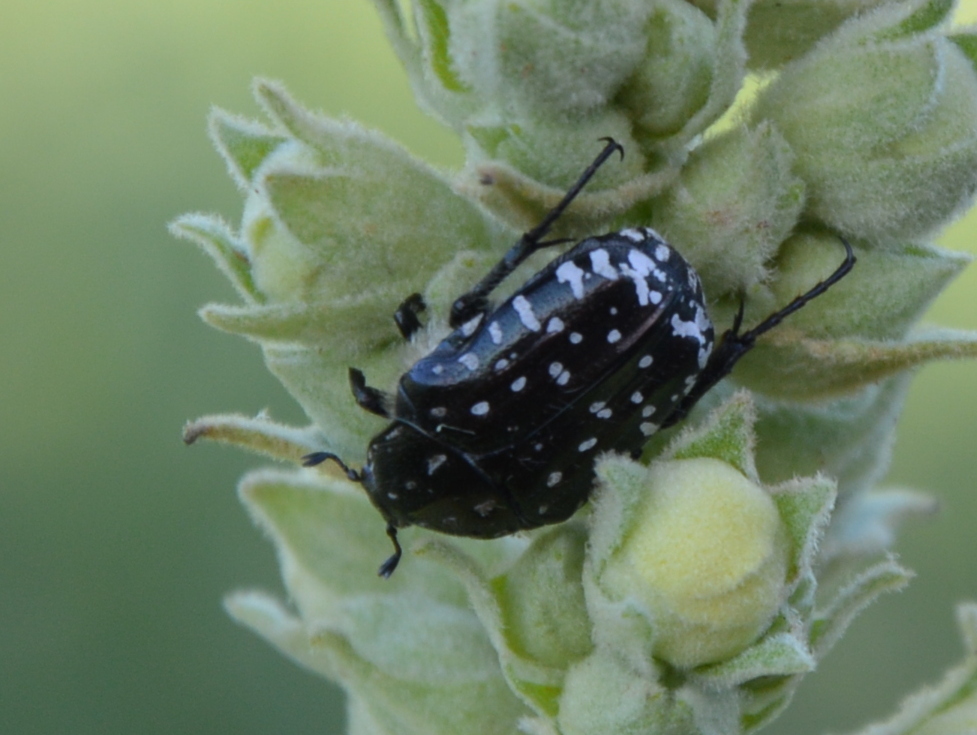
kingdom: Animalia
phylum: Arthropoda
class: Insecta
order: Coleoptera
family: Scarabaeidae
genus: Oxythyrea
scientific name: Oxythyrea funesta
